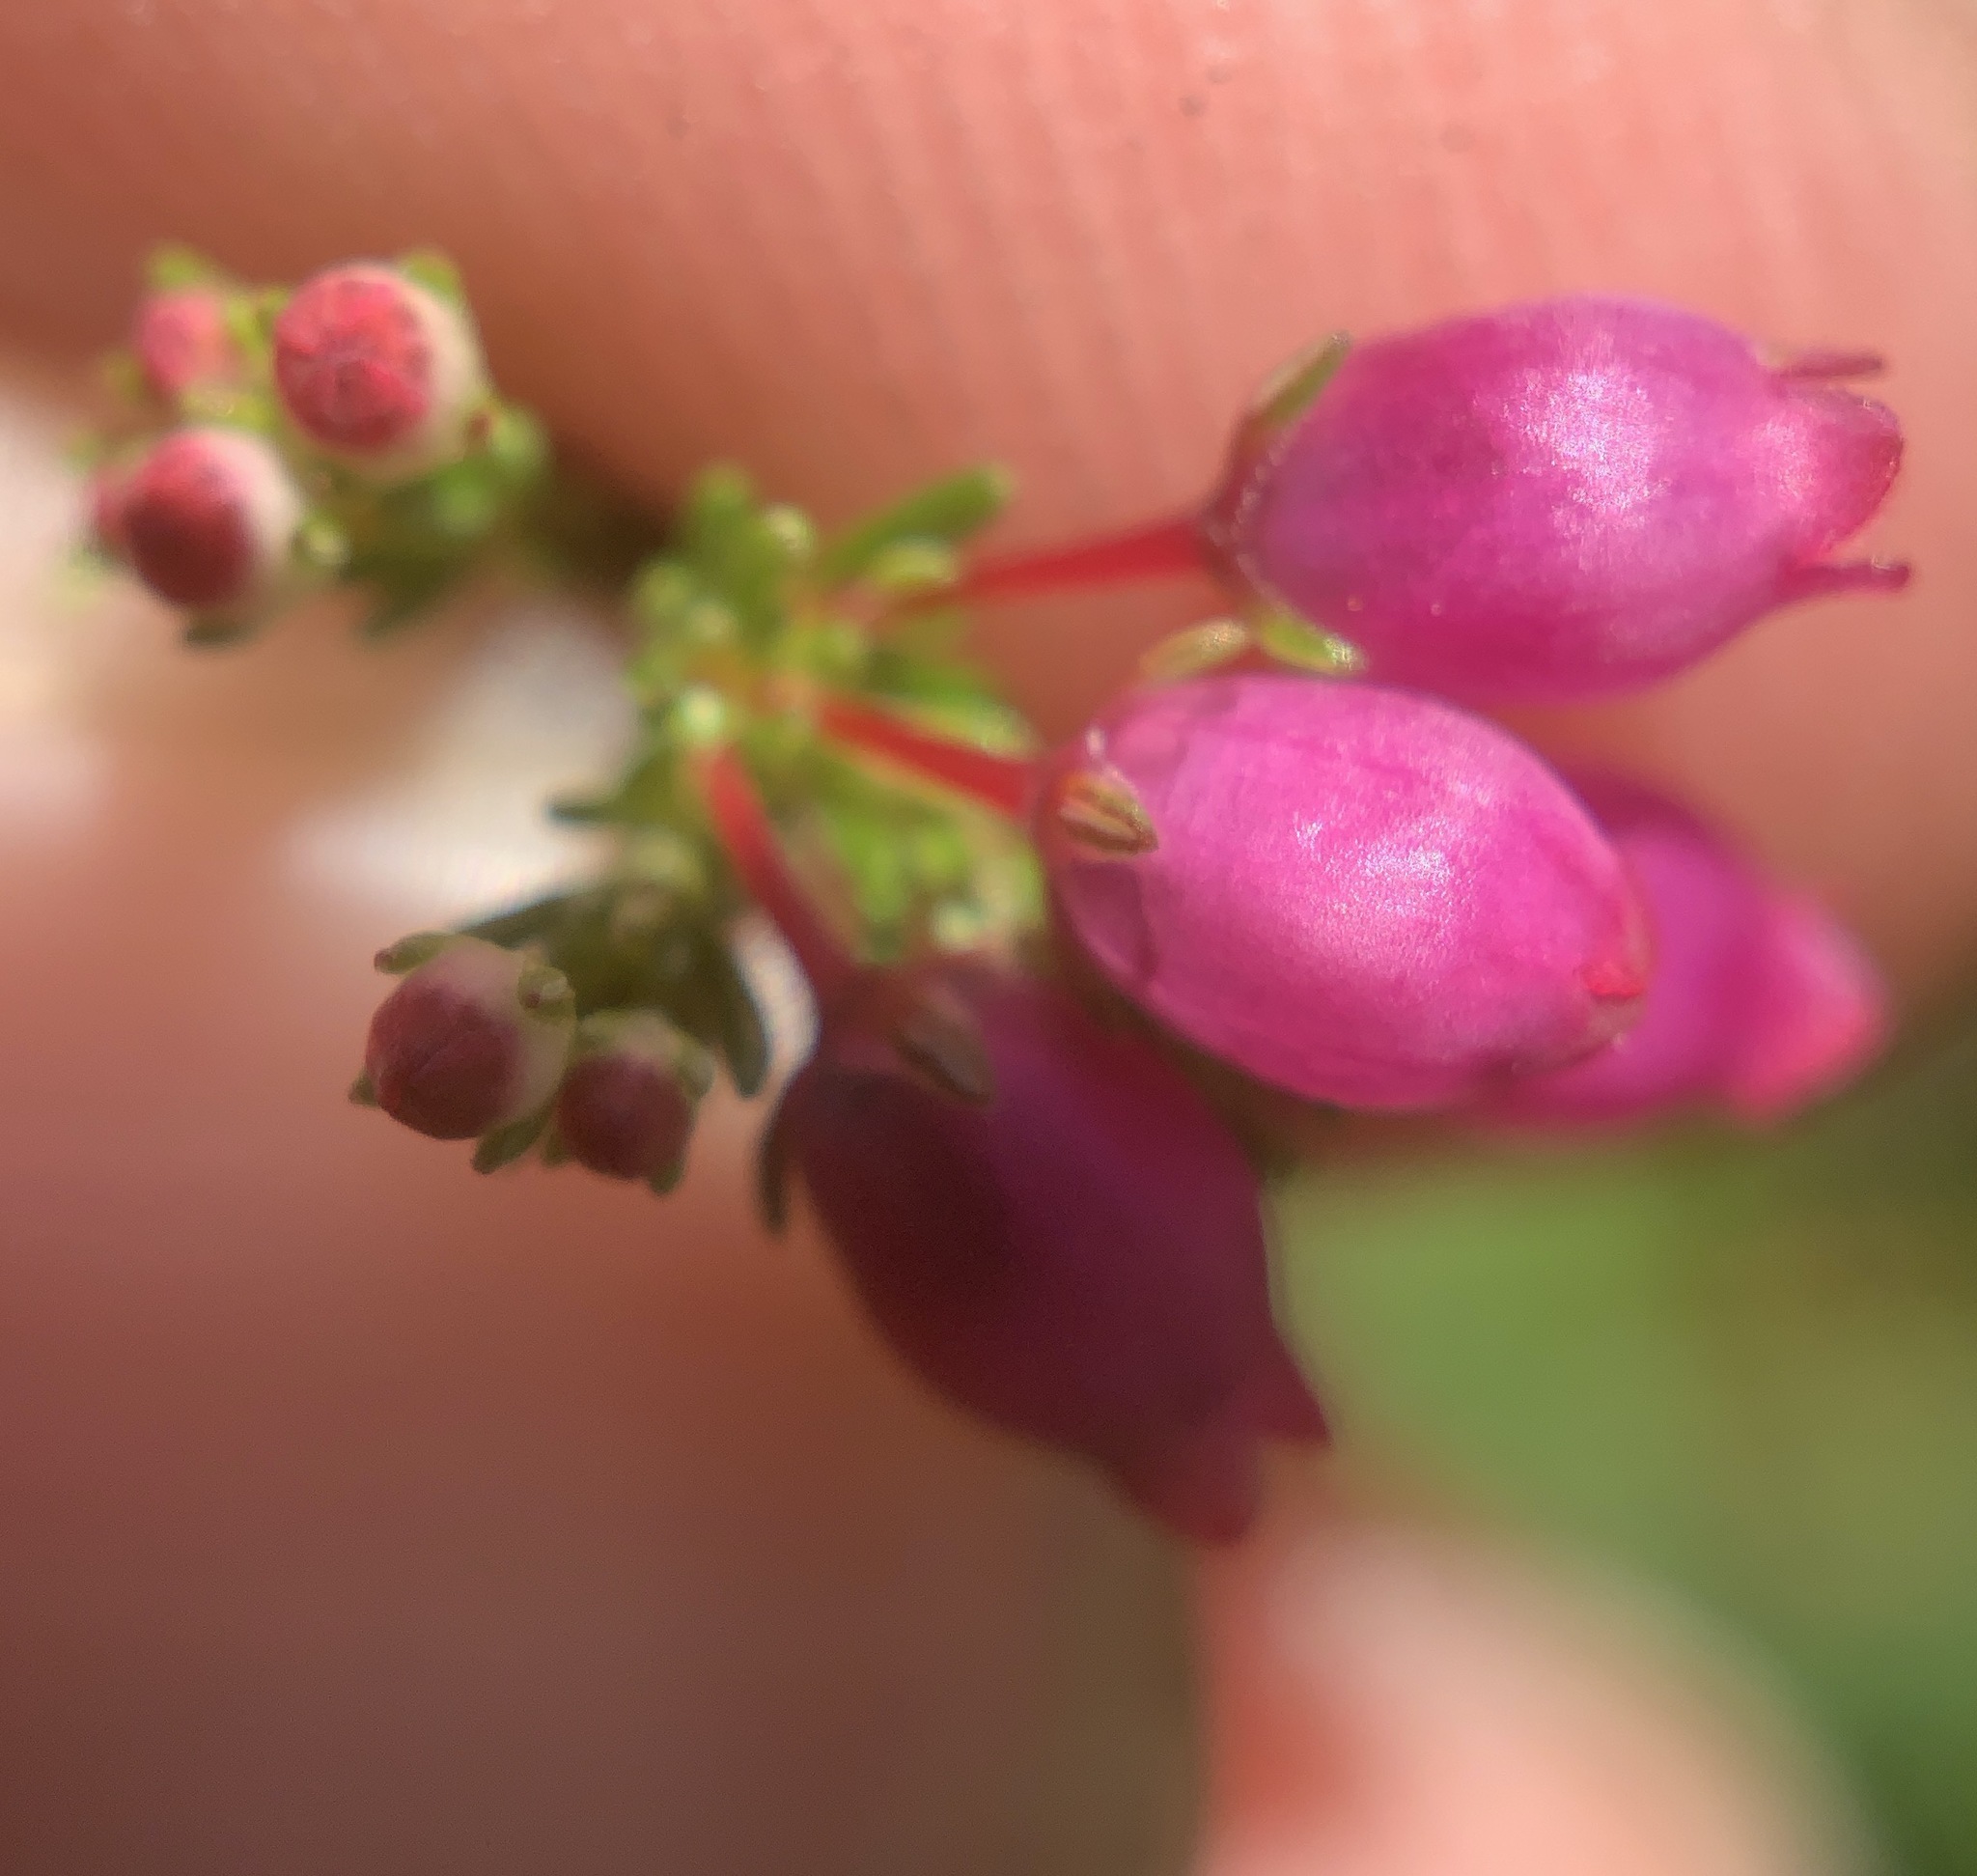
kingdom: Plantae
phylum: Tracheophyta
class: Magnoliopsida
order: Ericales
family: Ericaceae
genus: Erica
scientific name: Erica gracilis
